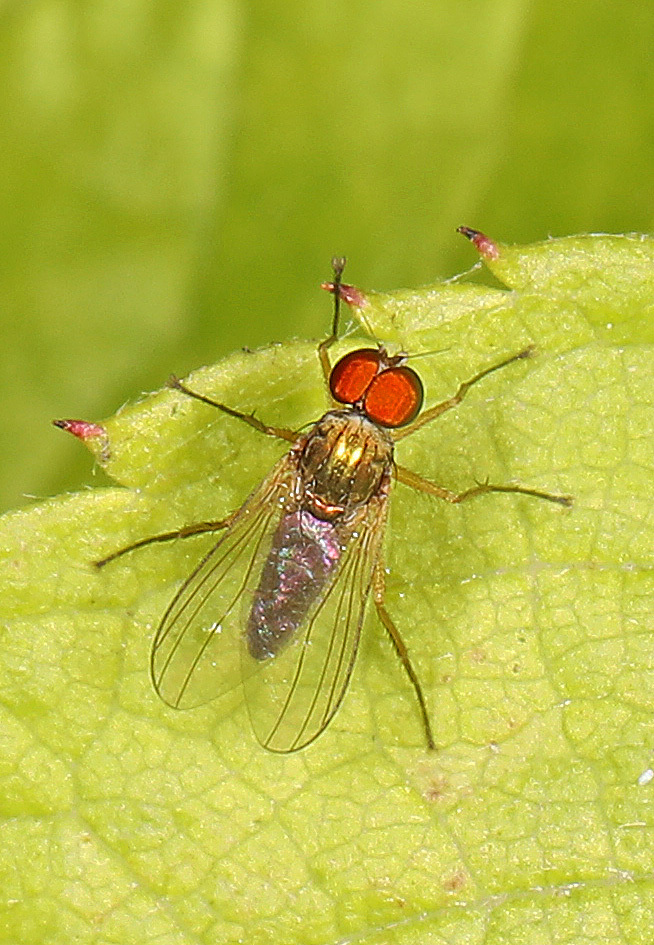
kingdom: Animalia
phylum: Arthropoda
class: Insecta
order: Diptera
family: Dolichopodidae
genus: Chrysotus
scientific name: Chrysotus
